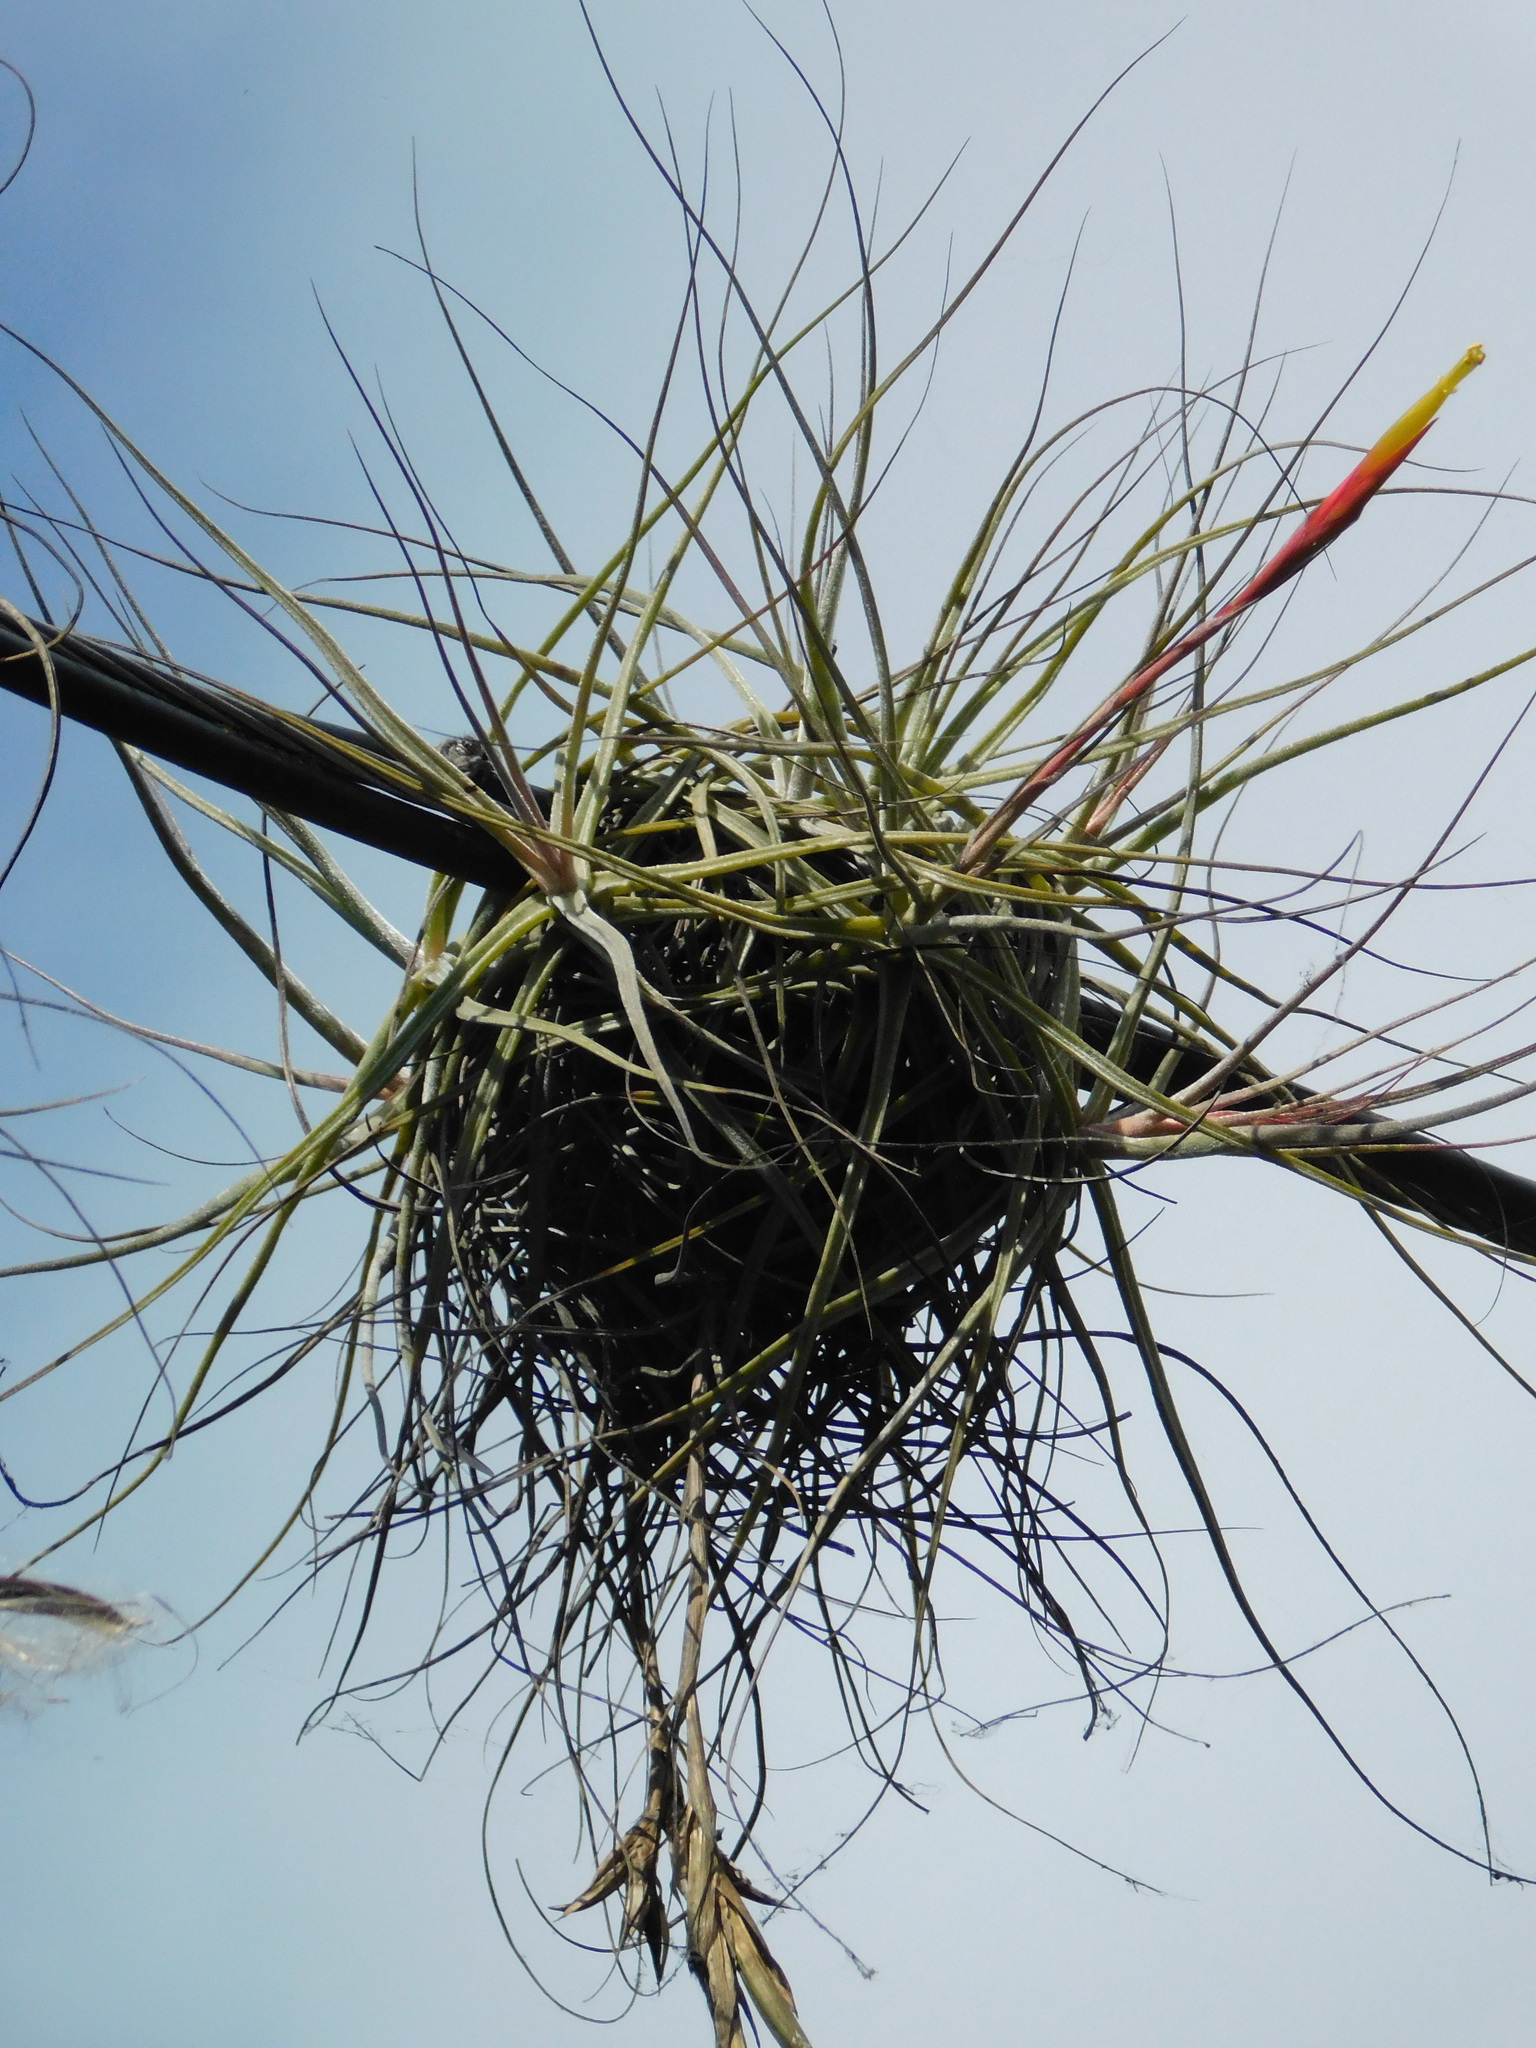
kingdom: Plantae
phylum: Tracheophyta
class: Liliopsida
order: Poales
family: Bromeliaceae
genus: Tillandsia
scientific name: Tillandsia schiedeana
